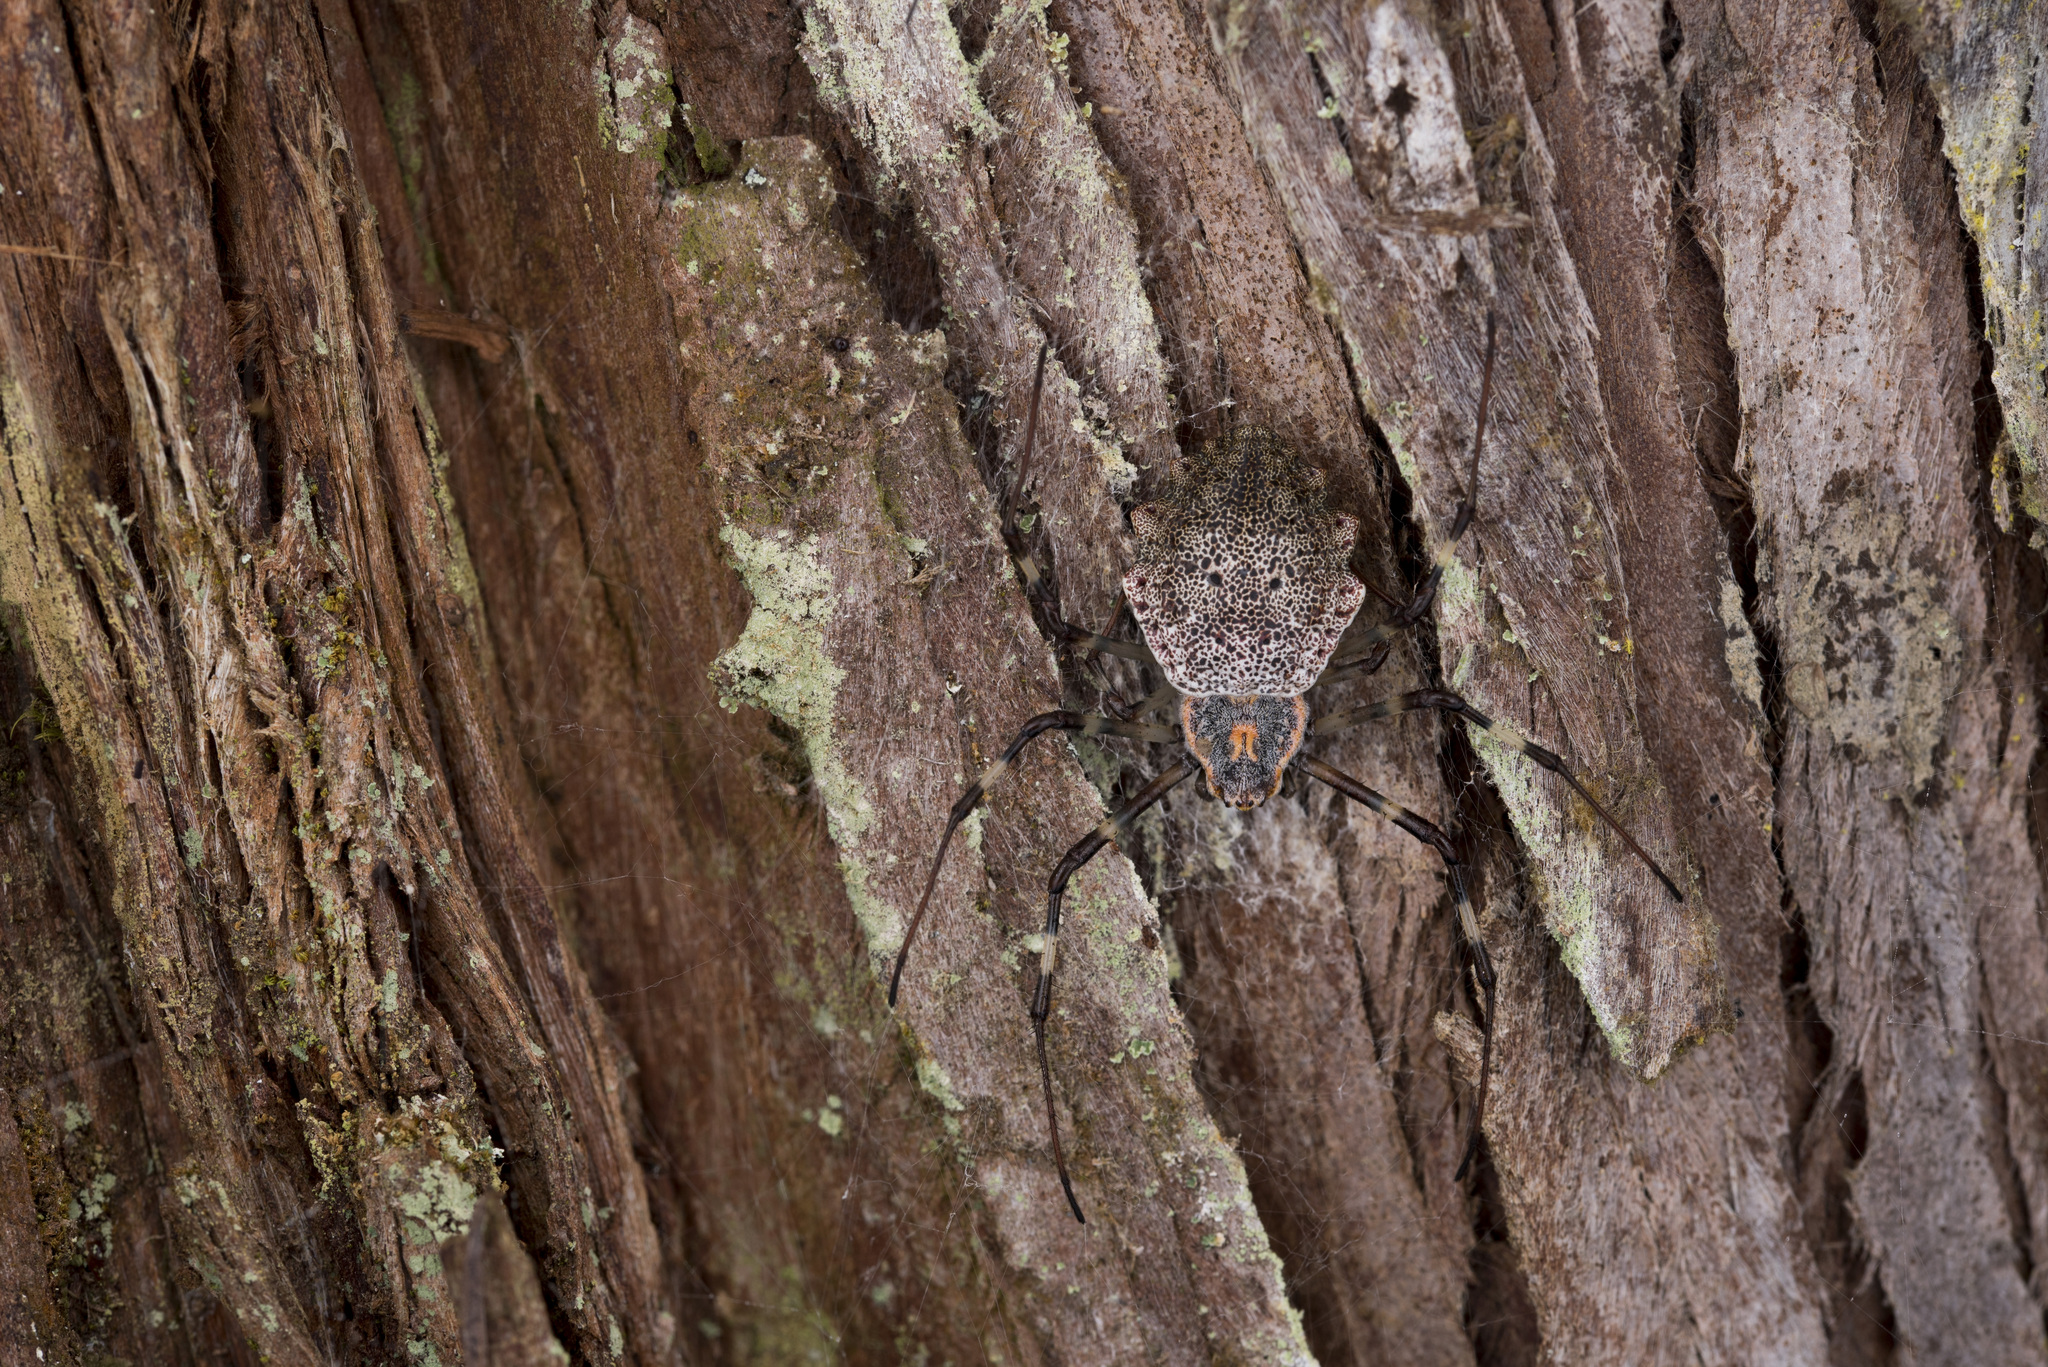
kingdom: Animalia
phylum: Arthropoda
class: Arachnida
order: Araneae
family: Araneidae
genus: Herennia
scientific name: Herennia multipuncta
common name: Spotted coin spider
